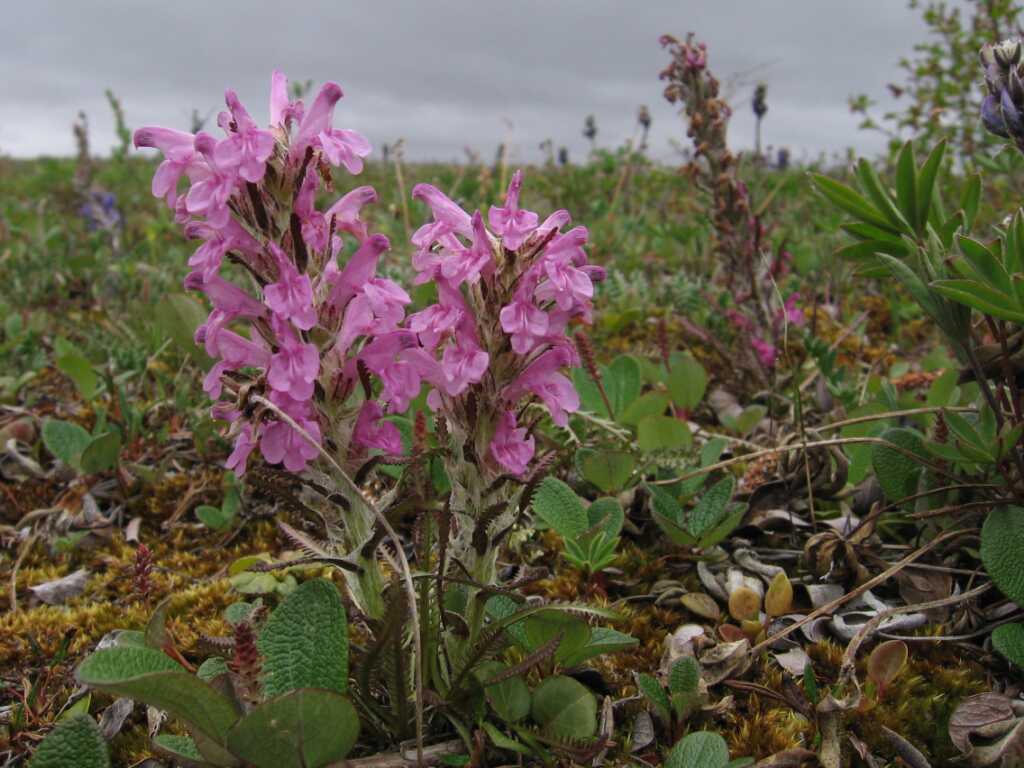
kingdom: Plantae
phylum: Tracheophyta
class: Magnoliopsida
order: Lamiales
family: Orobanchaceae
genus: Pedicularis
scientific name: Pedicularis lanata
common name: Woolly lousewort
